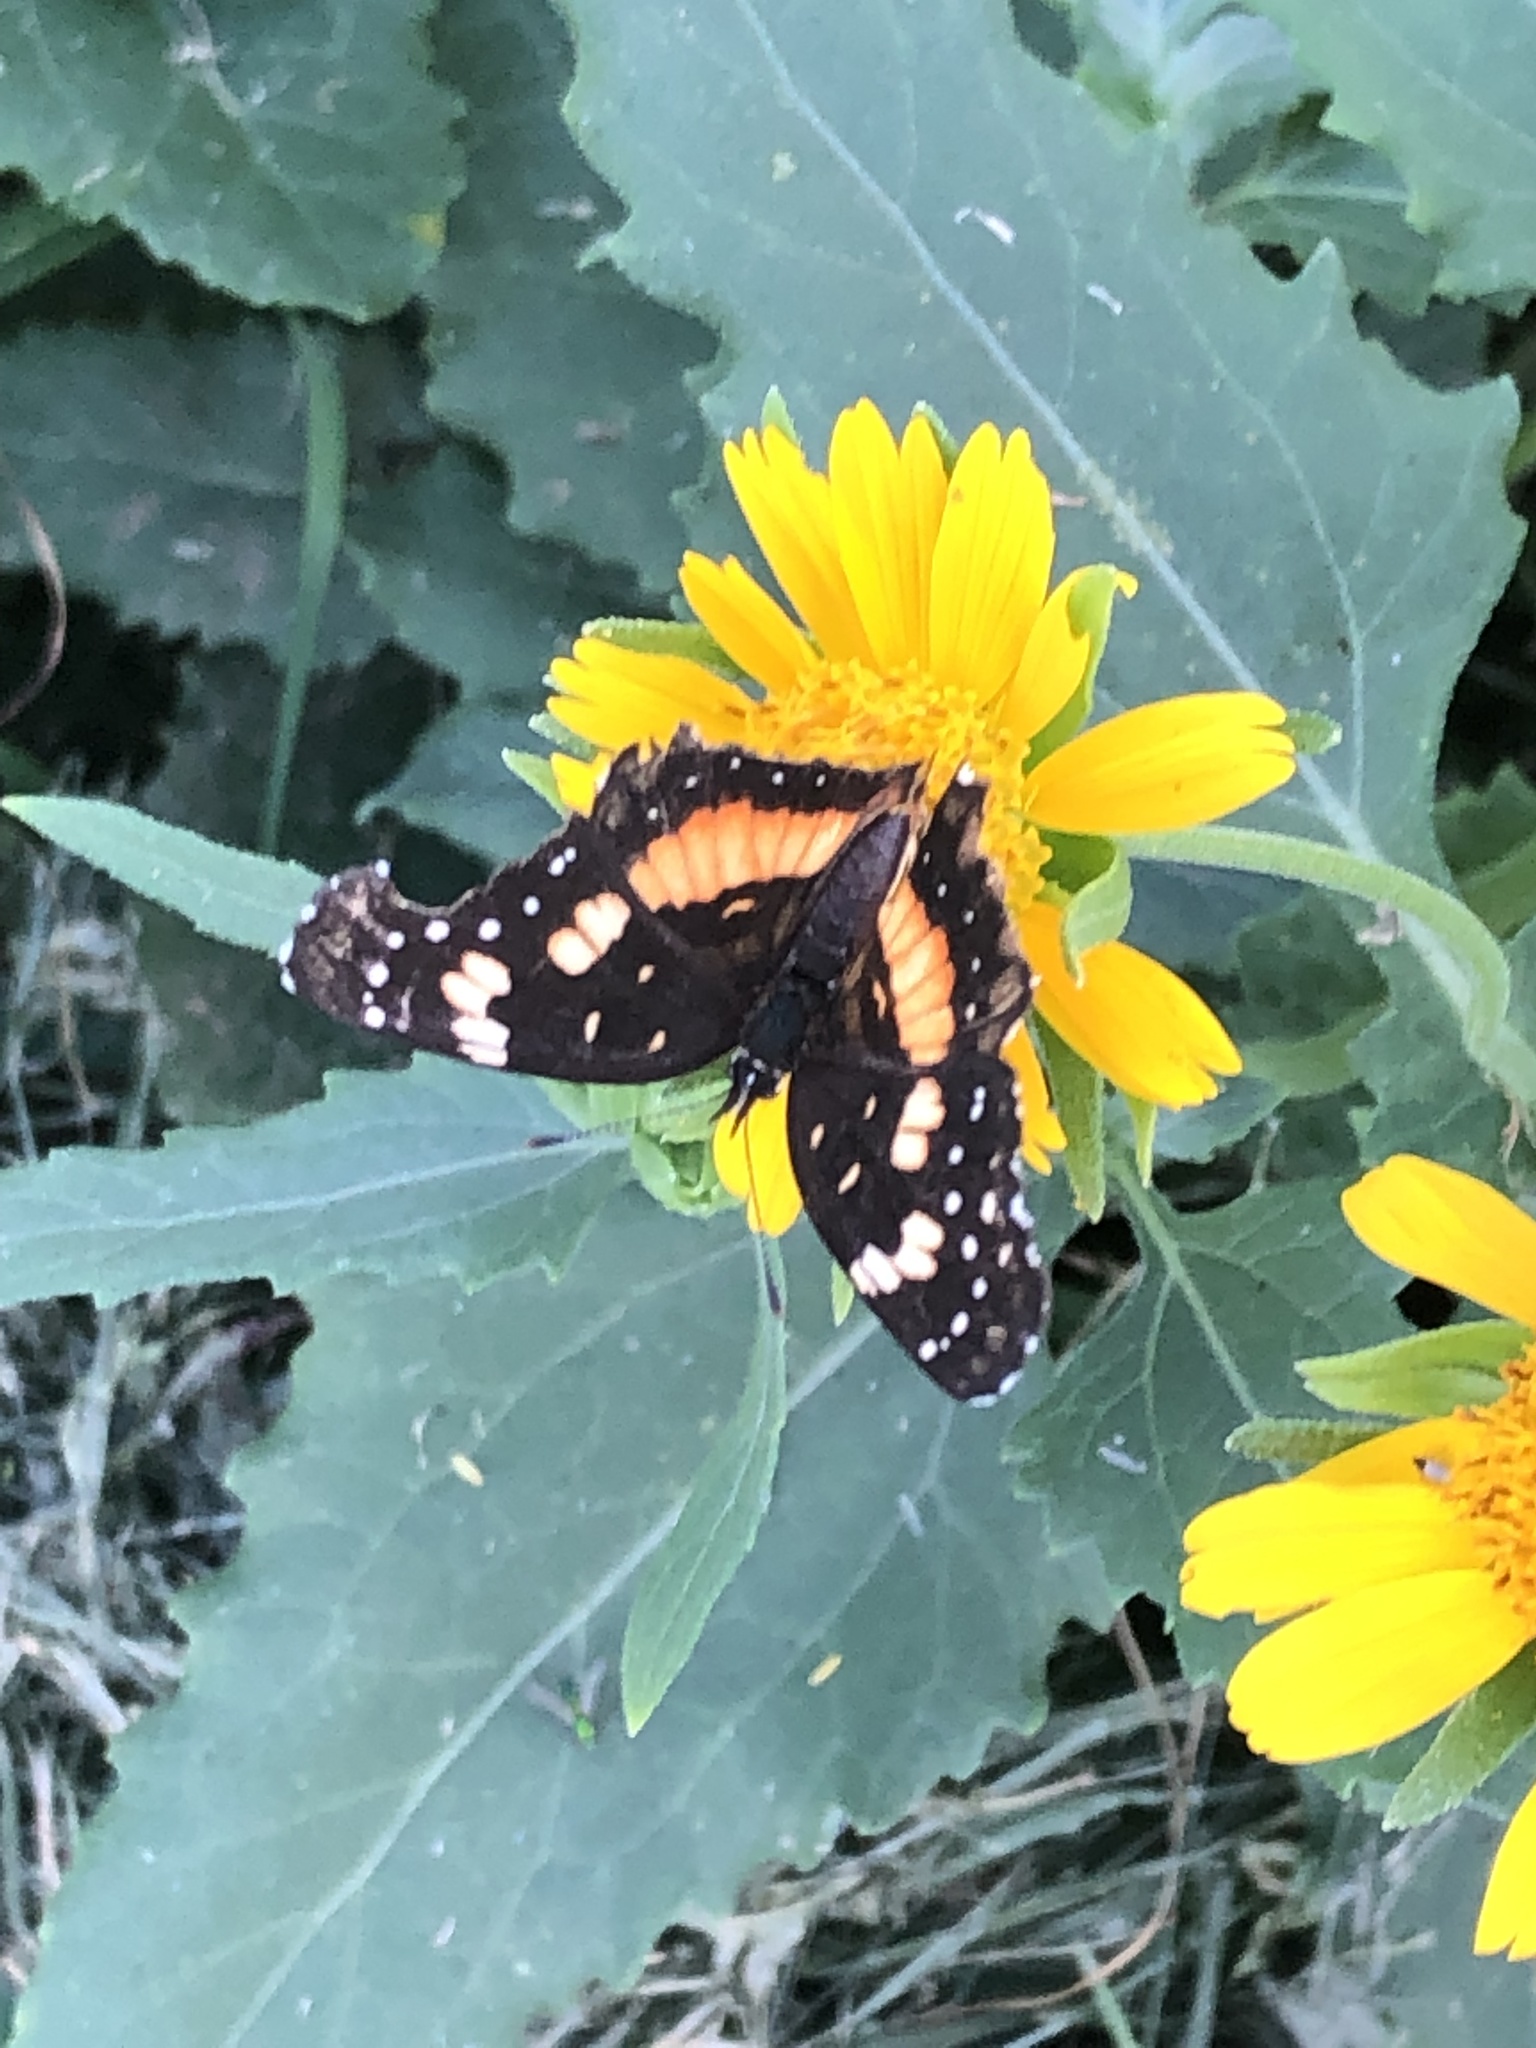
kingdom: Animalia
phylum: Arthropoda
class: Insecta
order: Lepidoptera
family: Nymphalidae
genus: Chlosyne
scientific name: Chlosyne lacinia
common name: Bordered patch
